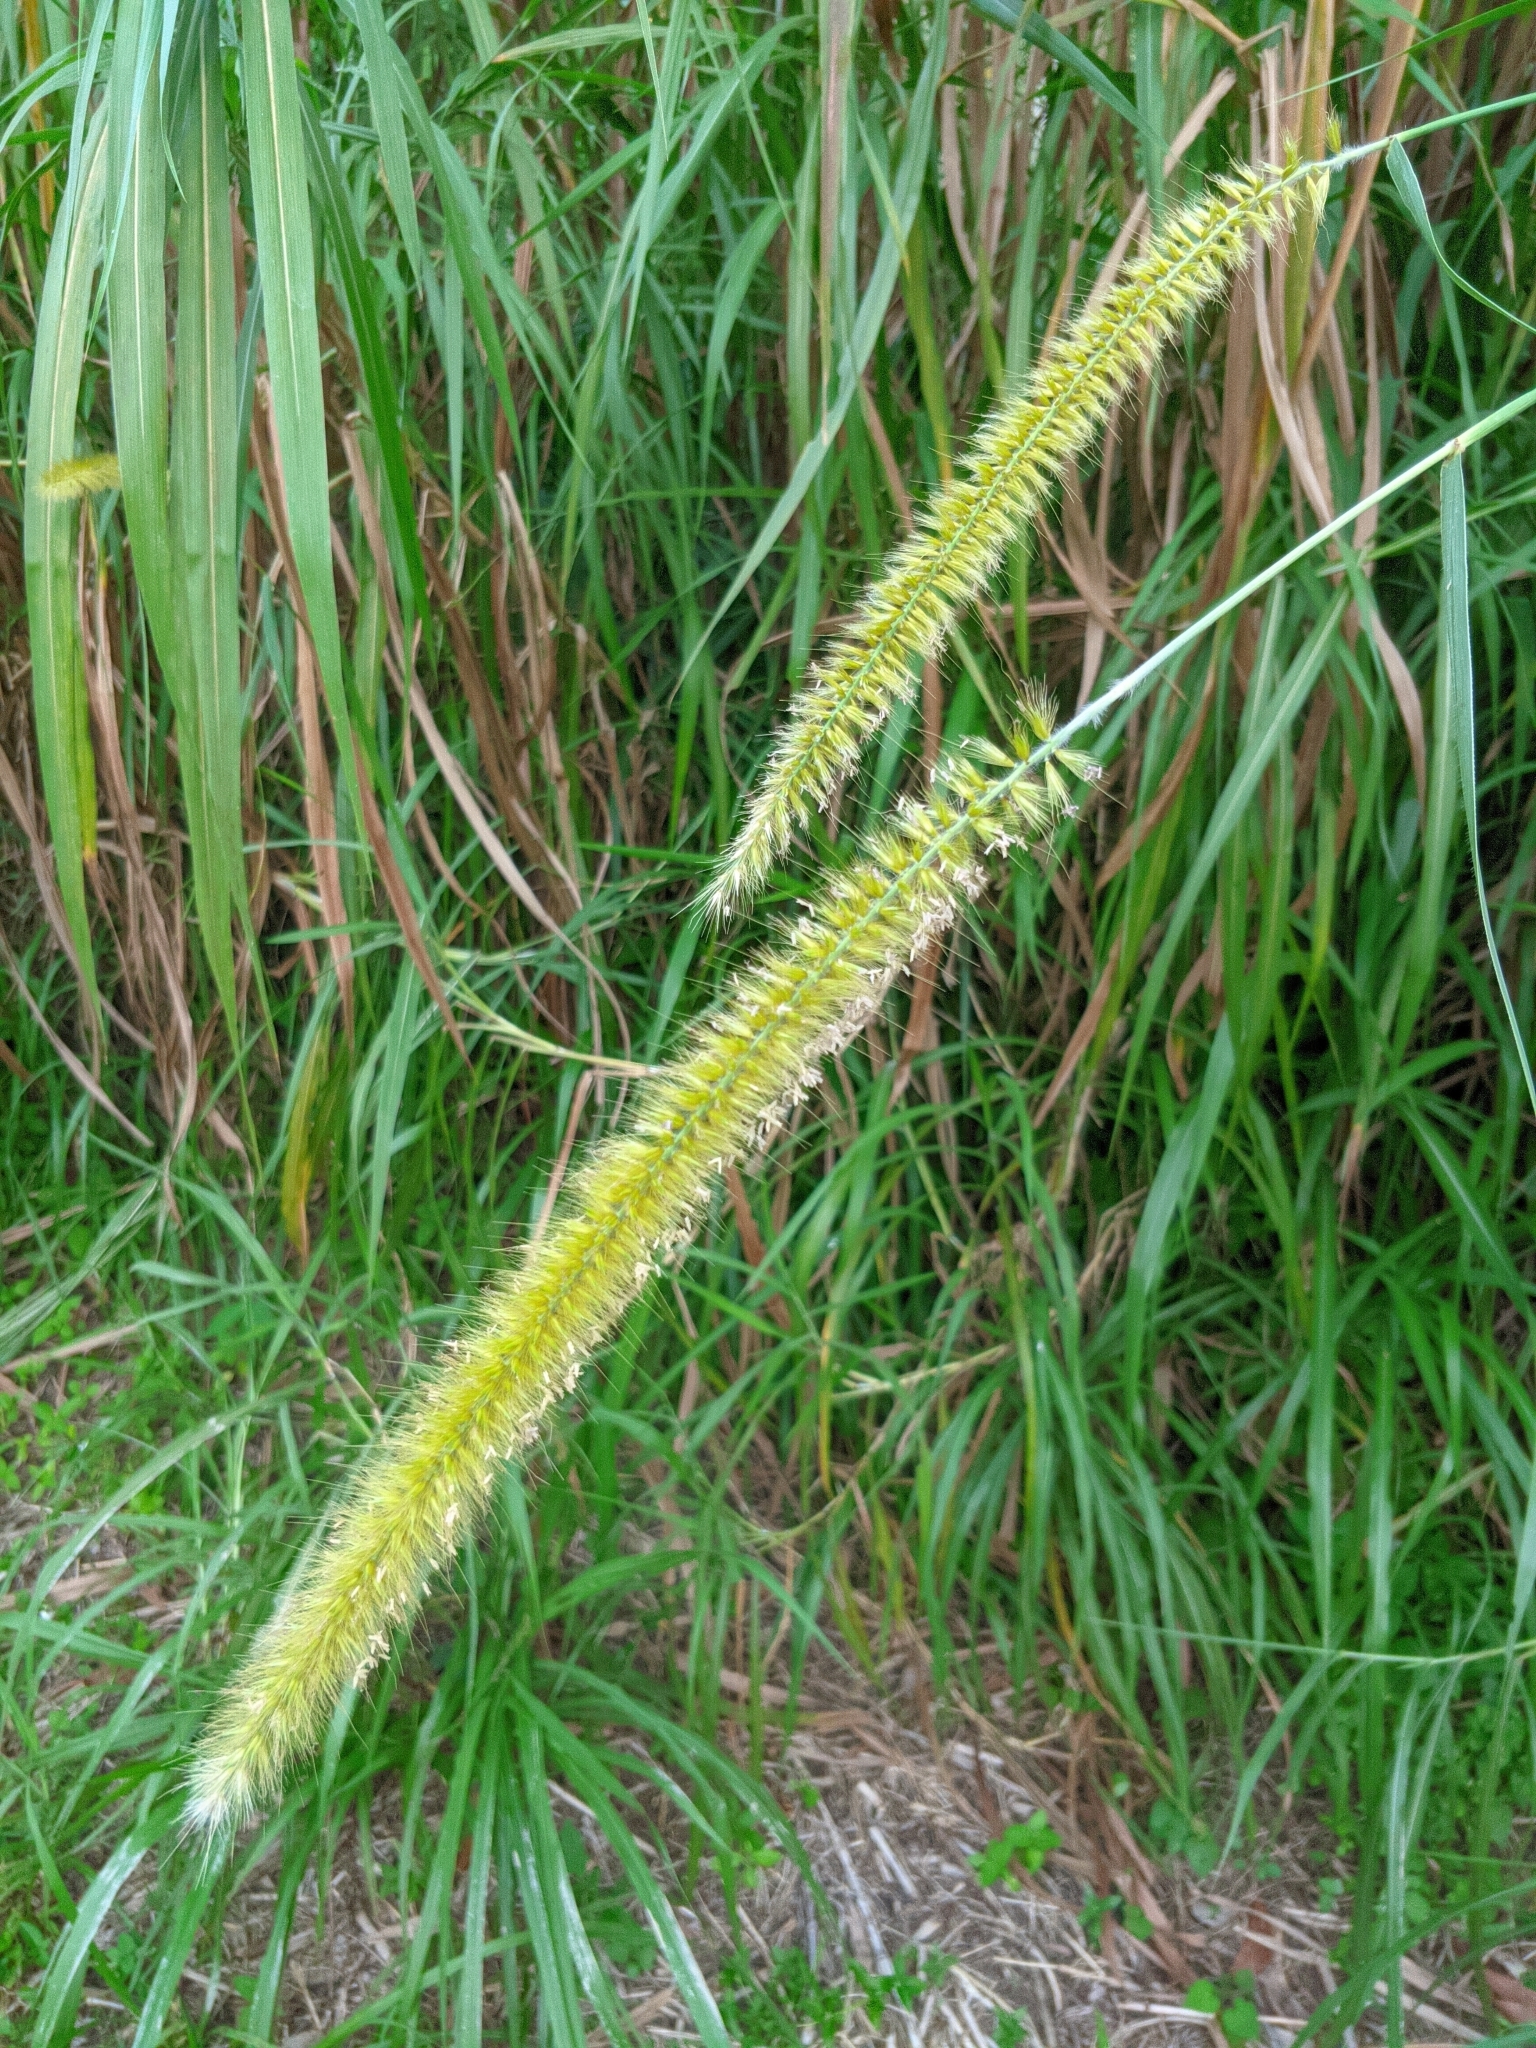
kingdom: Plantae
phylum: Tracheophyta
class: Liliopsida
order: Poales
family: Poaceae
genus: Cenchrus
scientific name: Cenchrus purpureus
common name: Elephant grass
